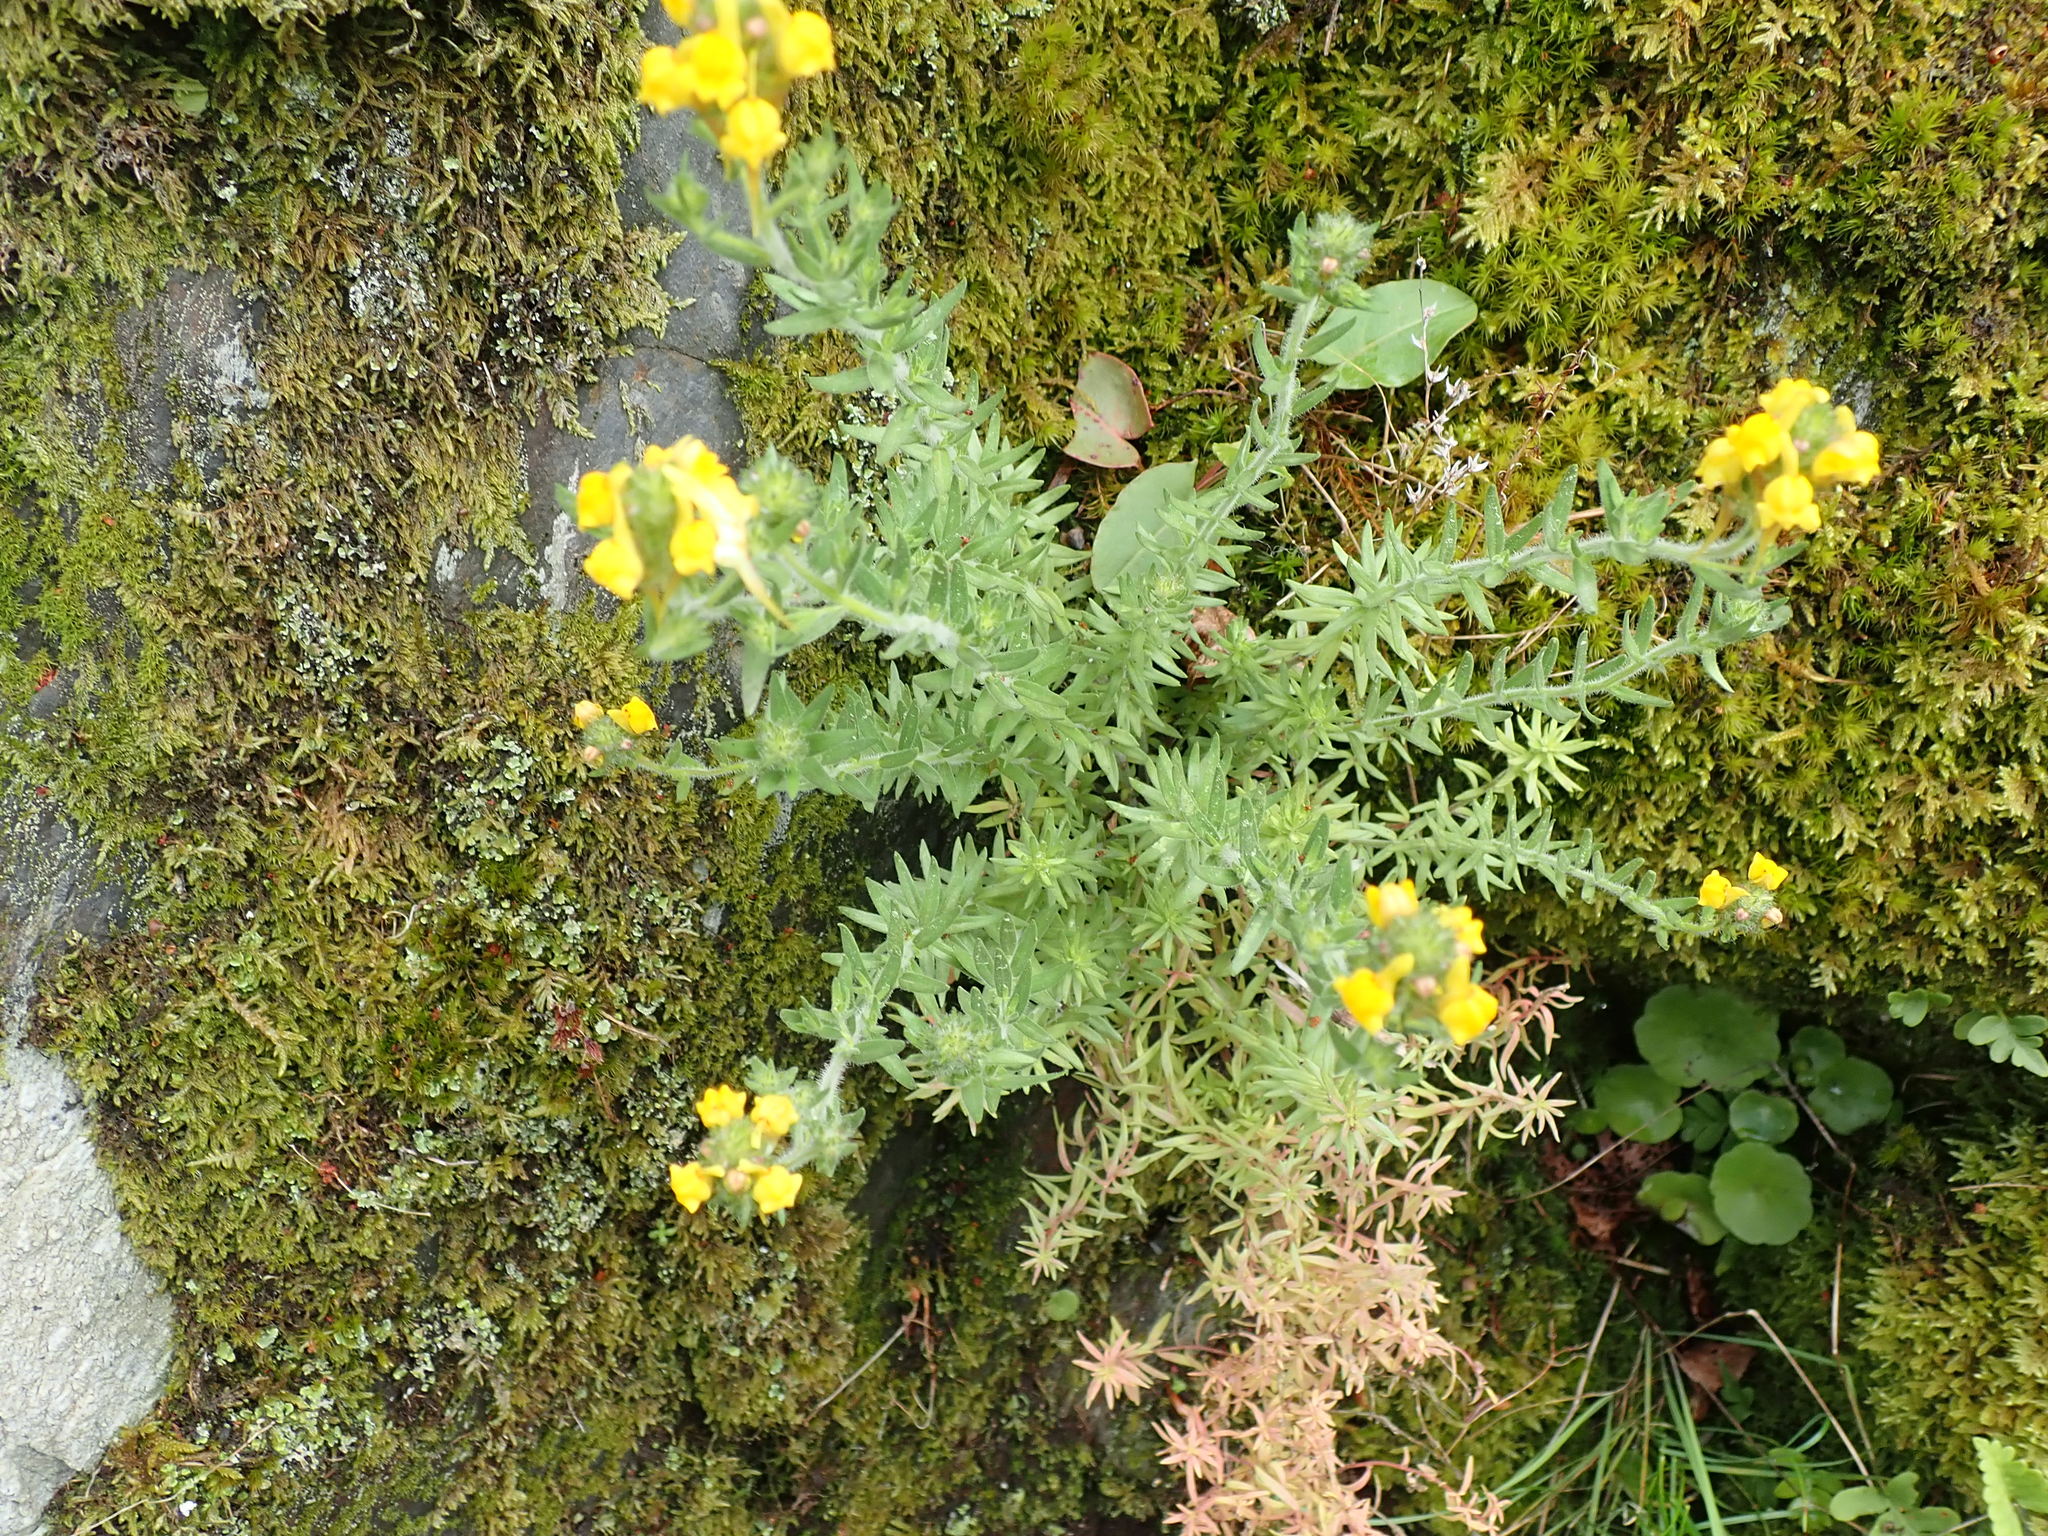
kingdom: Plantae
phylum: Tracheophyta
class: Magnoliopsida
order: Lamiales
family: Plantaginaceae
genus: Linaria
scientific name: Linaria saxatilis
